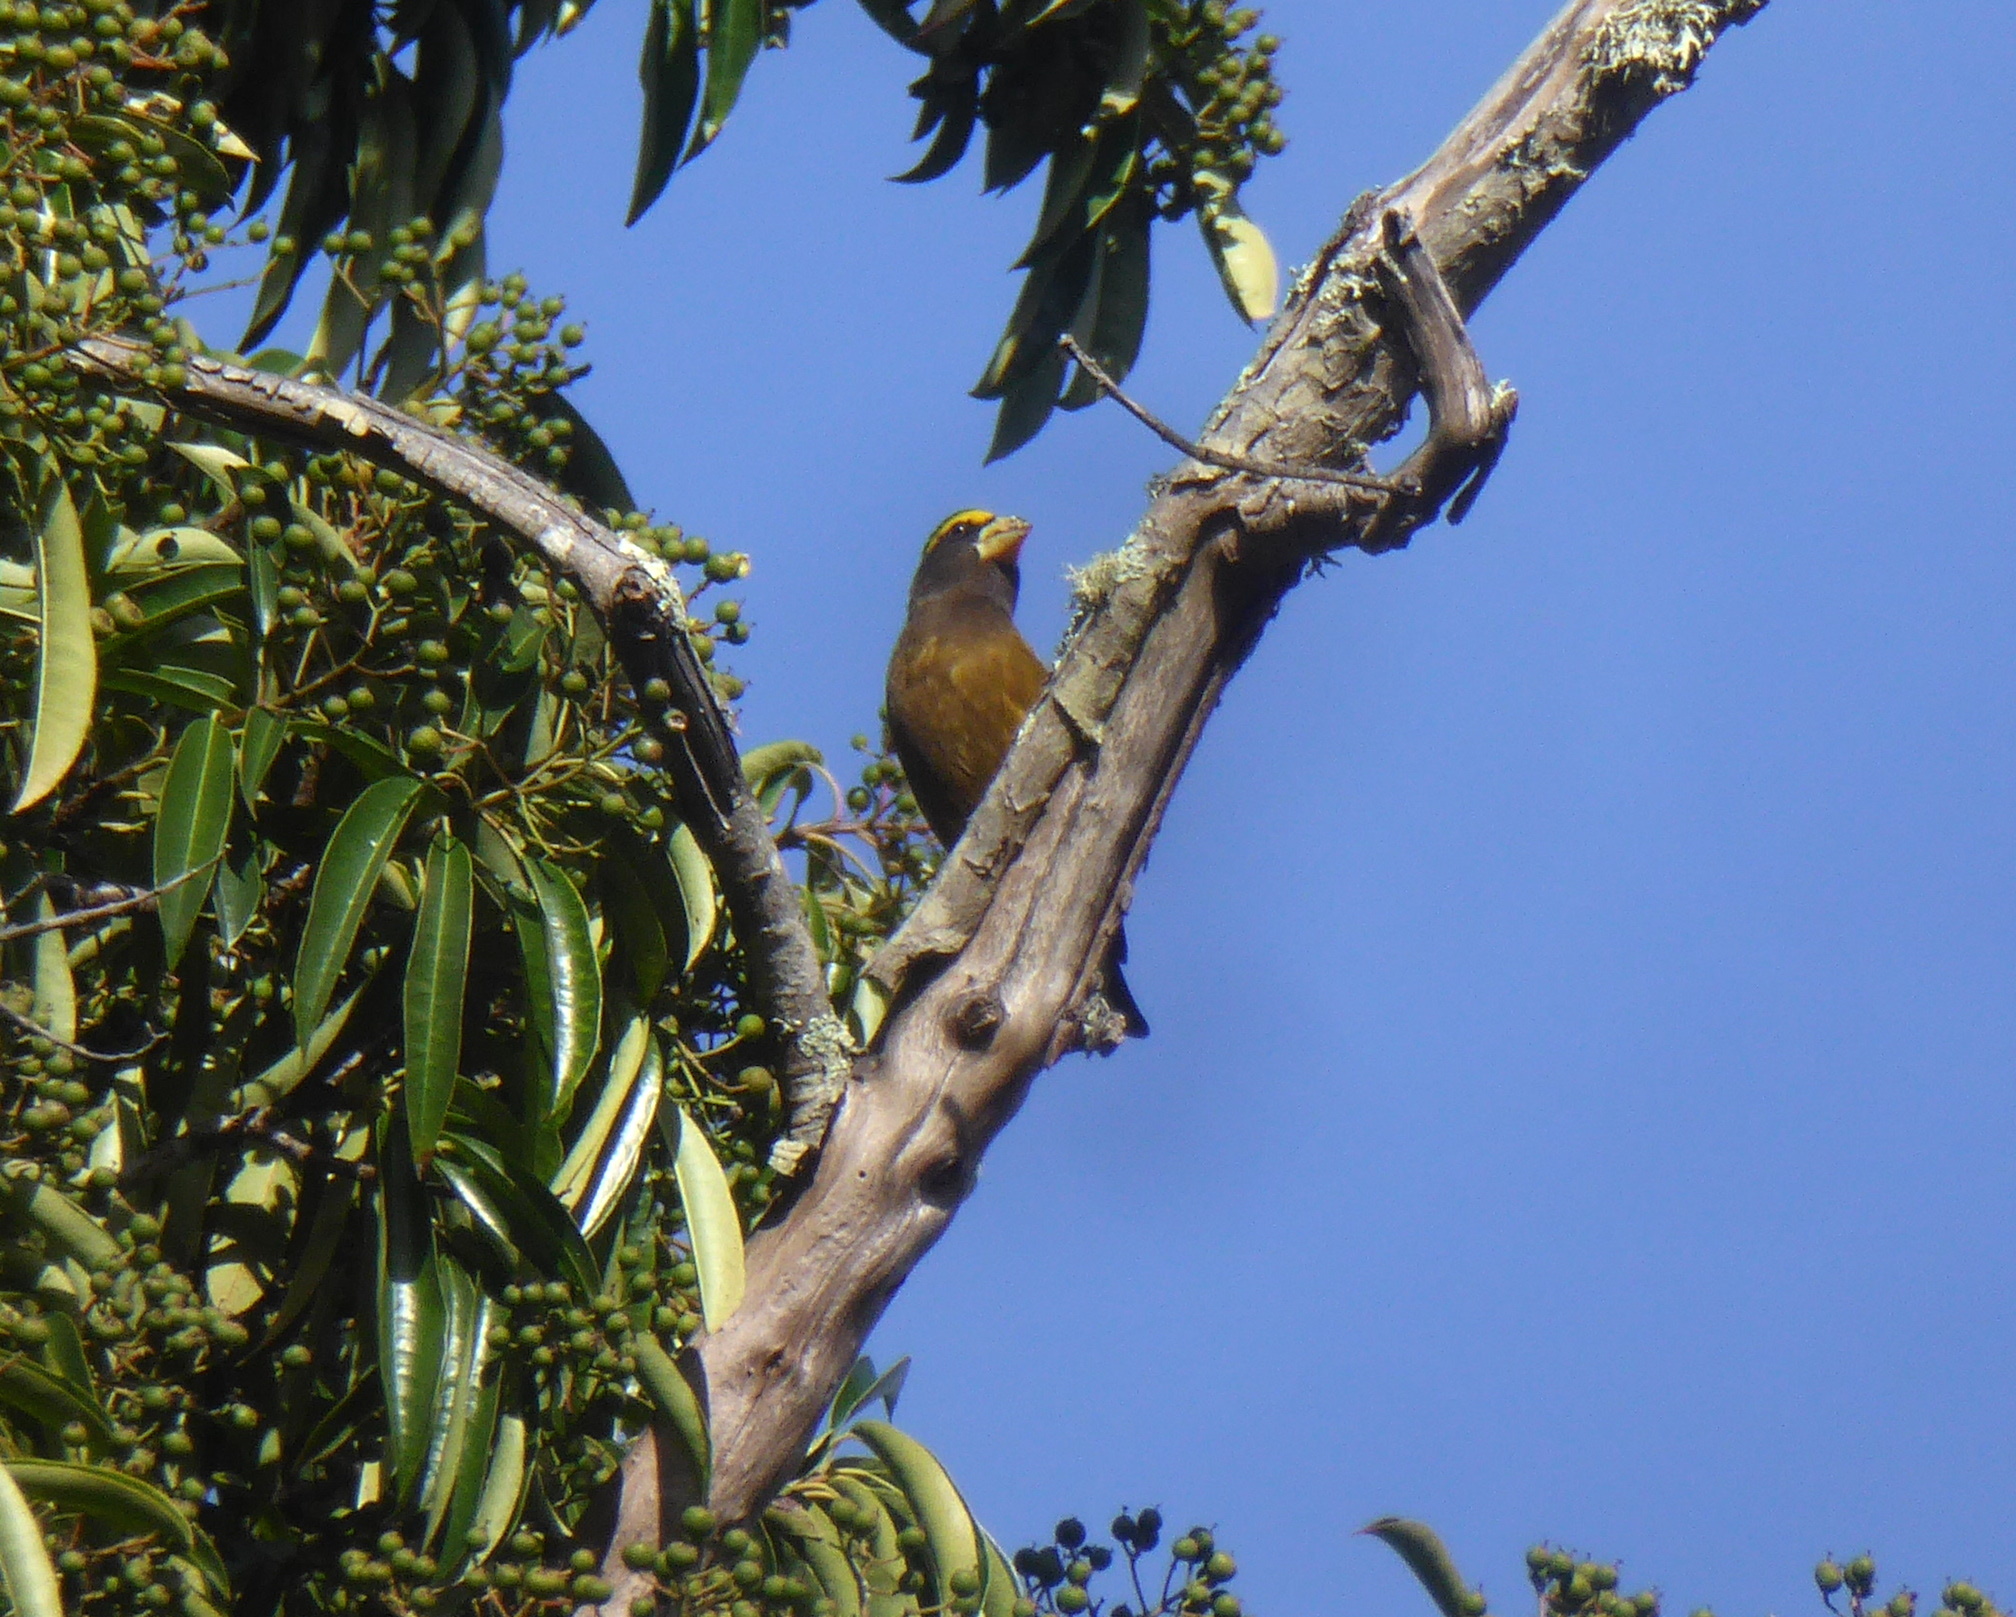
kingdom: Animalia
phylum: Chordata
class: Aves
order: Passeriformes
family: Fringillidae
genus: Hesperiphona
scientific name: Hesperiphona vespertina
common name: Evening grosbeak
